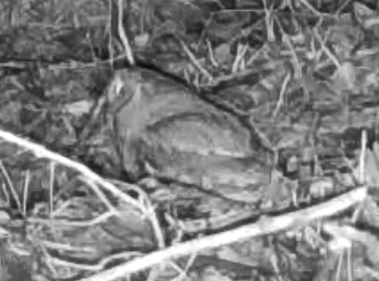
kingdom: Animalia
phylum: Chordata
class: Aves
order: Strigiformes
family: Strigidae
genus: Megascops
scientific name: Megascops asio
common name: Eastern screech-owl
